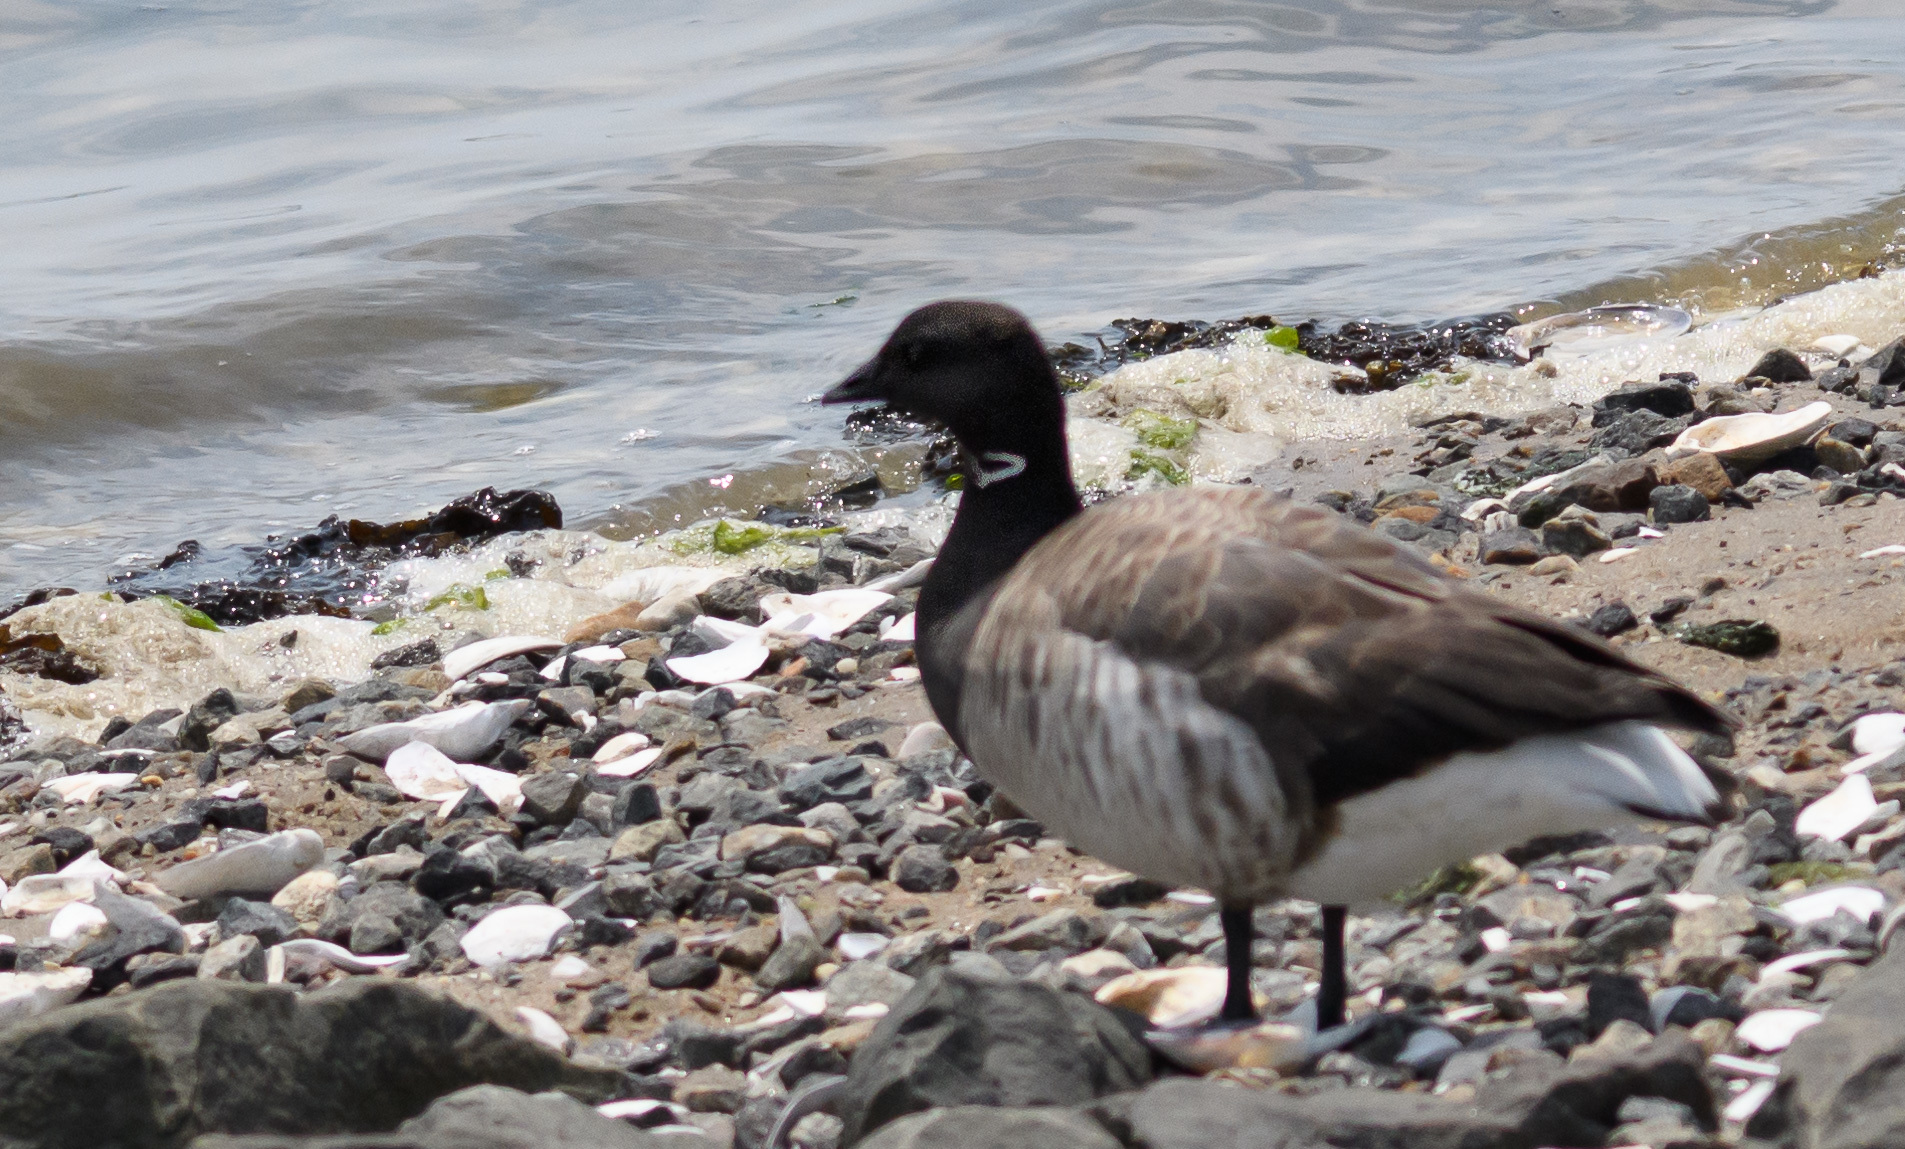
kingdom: Animalia
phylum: Chordata
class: Aves
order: Anseriformes
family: Anatidae
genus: Branta
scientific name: Branta bernicla
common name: Brant goose
